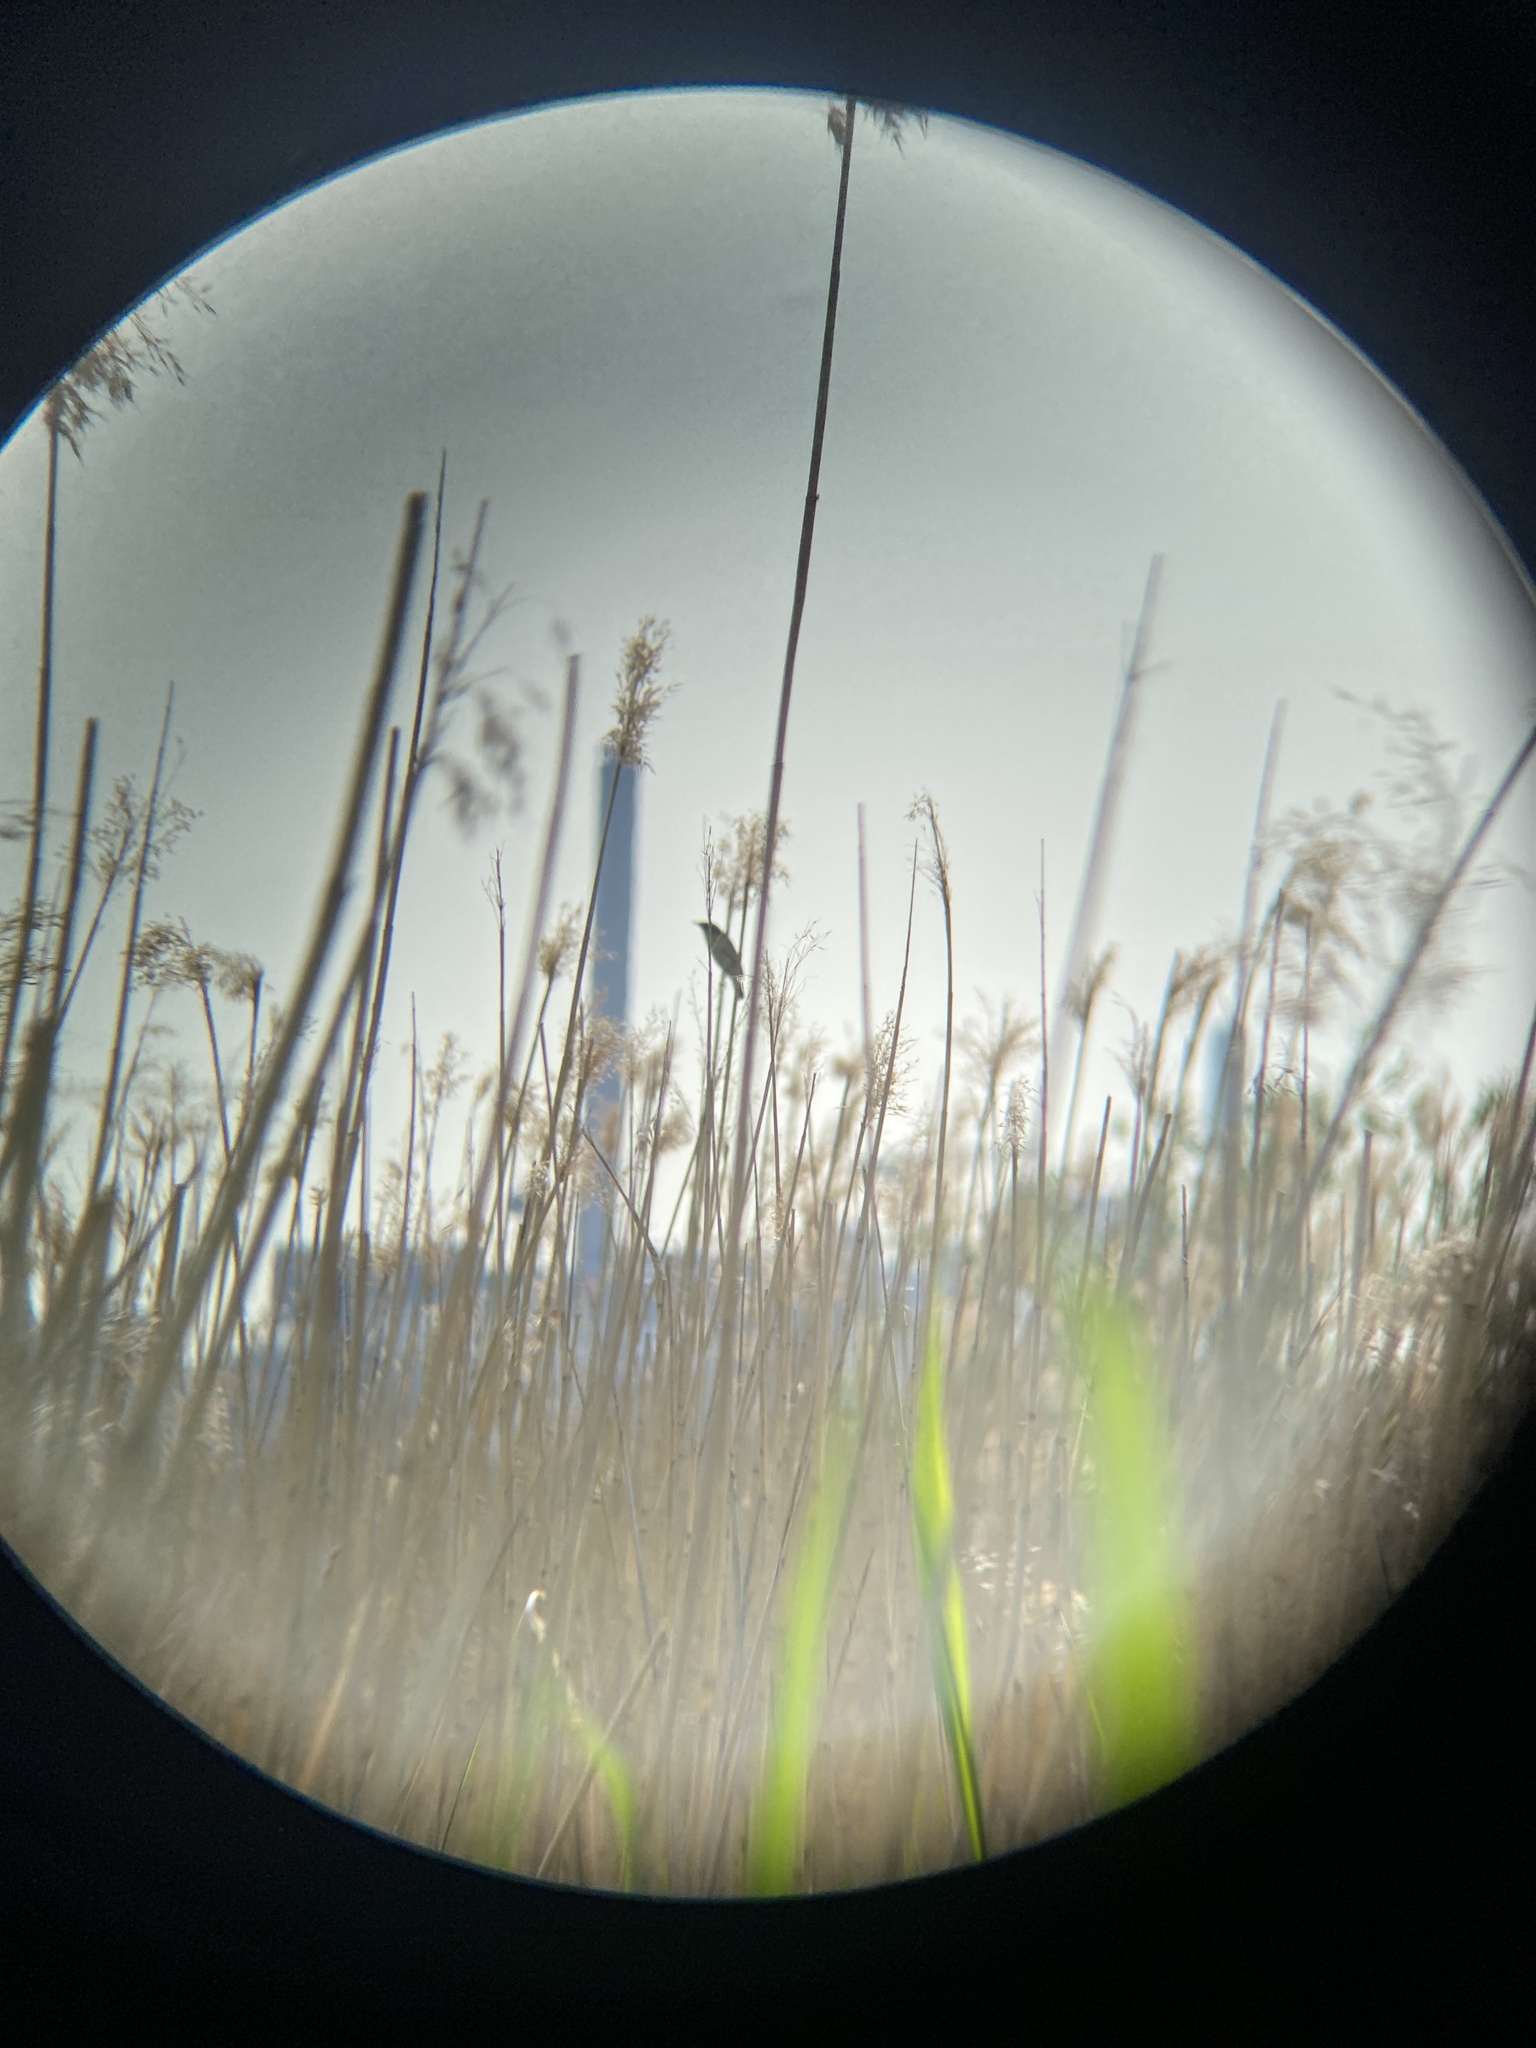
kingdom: Animalia
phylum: Chordata
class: Aves
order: Passeriformes
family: Acrocephalidae
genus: Acrocephalus
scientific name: Acrocephalus schoenobaenus
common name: Sedge warbler
